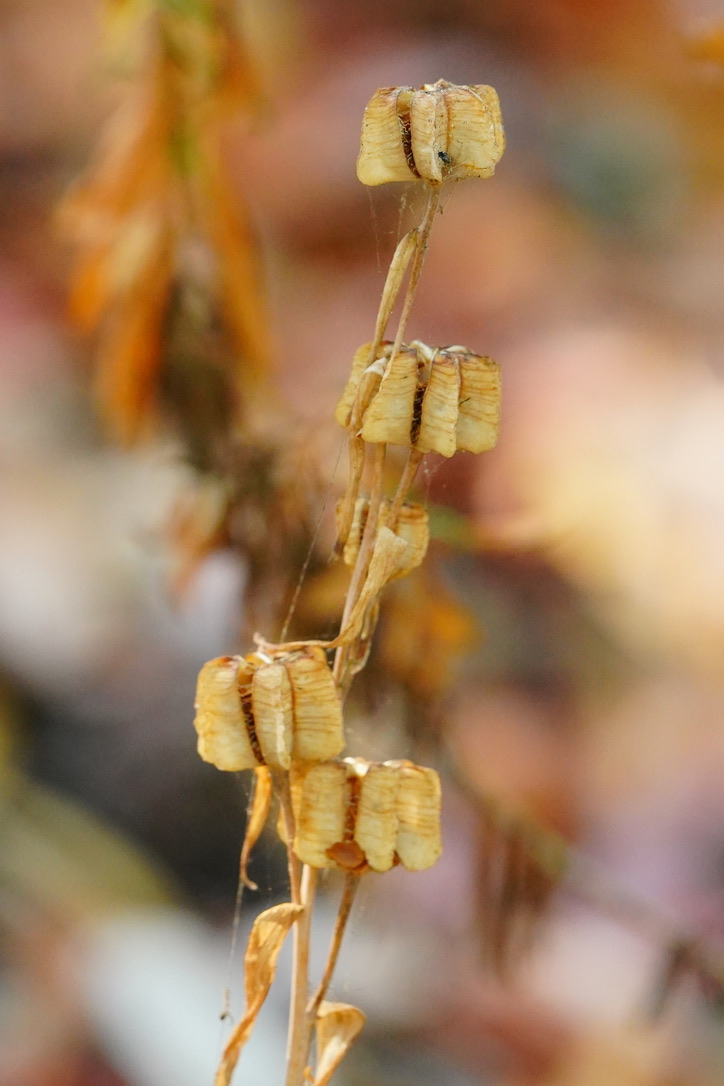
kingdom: Plantae
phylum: Tracheophyta
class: Liliopsida
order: Liliales
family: Liliaceae
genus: Fritillaria
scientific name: Fritillaria affinis
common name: Ojai fritillary
